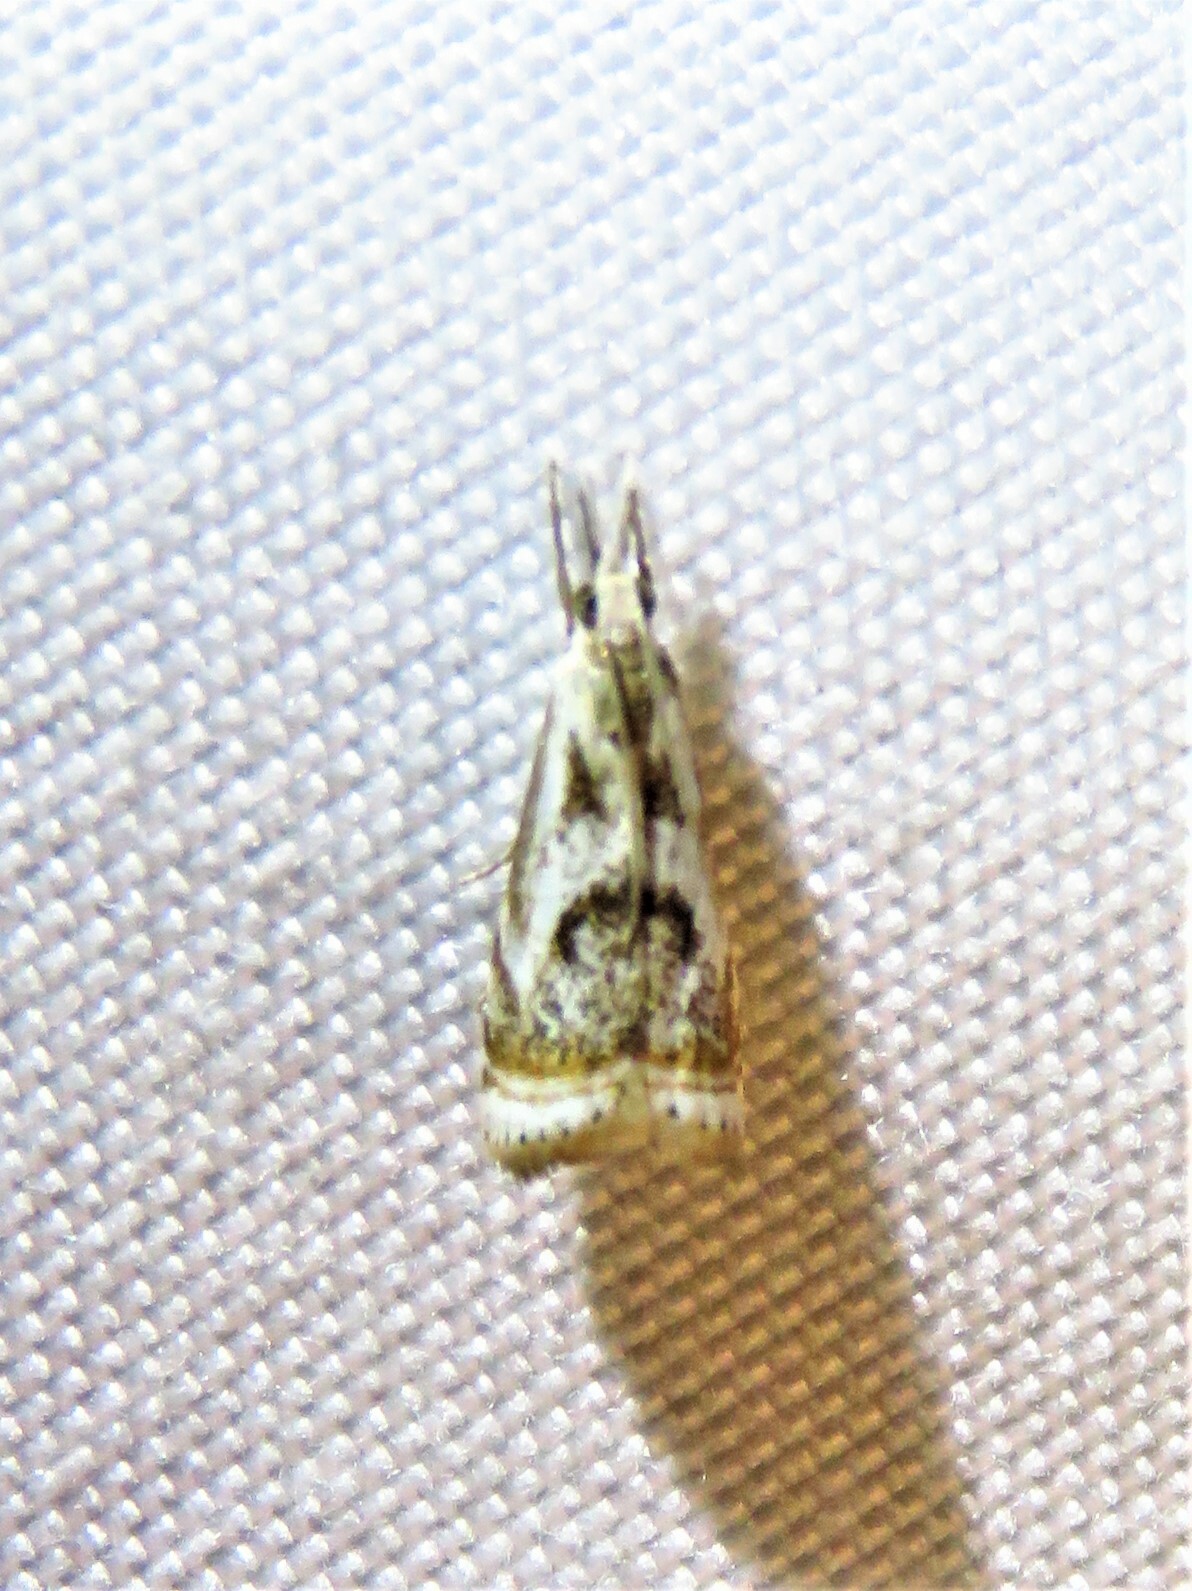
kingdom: Animalia
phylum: Arthropoda
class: Insecta
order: Lepidoptera
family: Crambidae
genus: Microcrambus
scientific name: Microcrambus elegans
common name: Elegant grass-veneer
